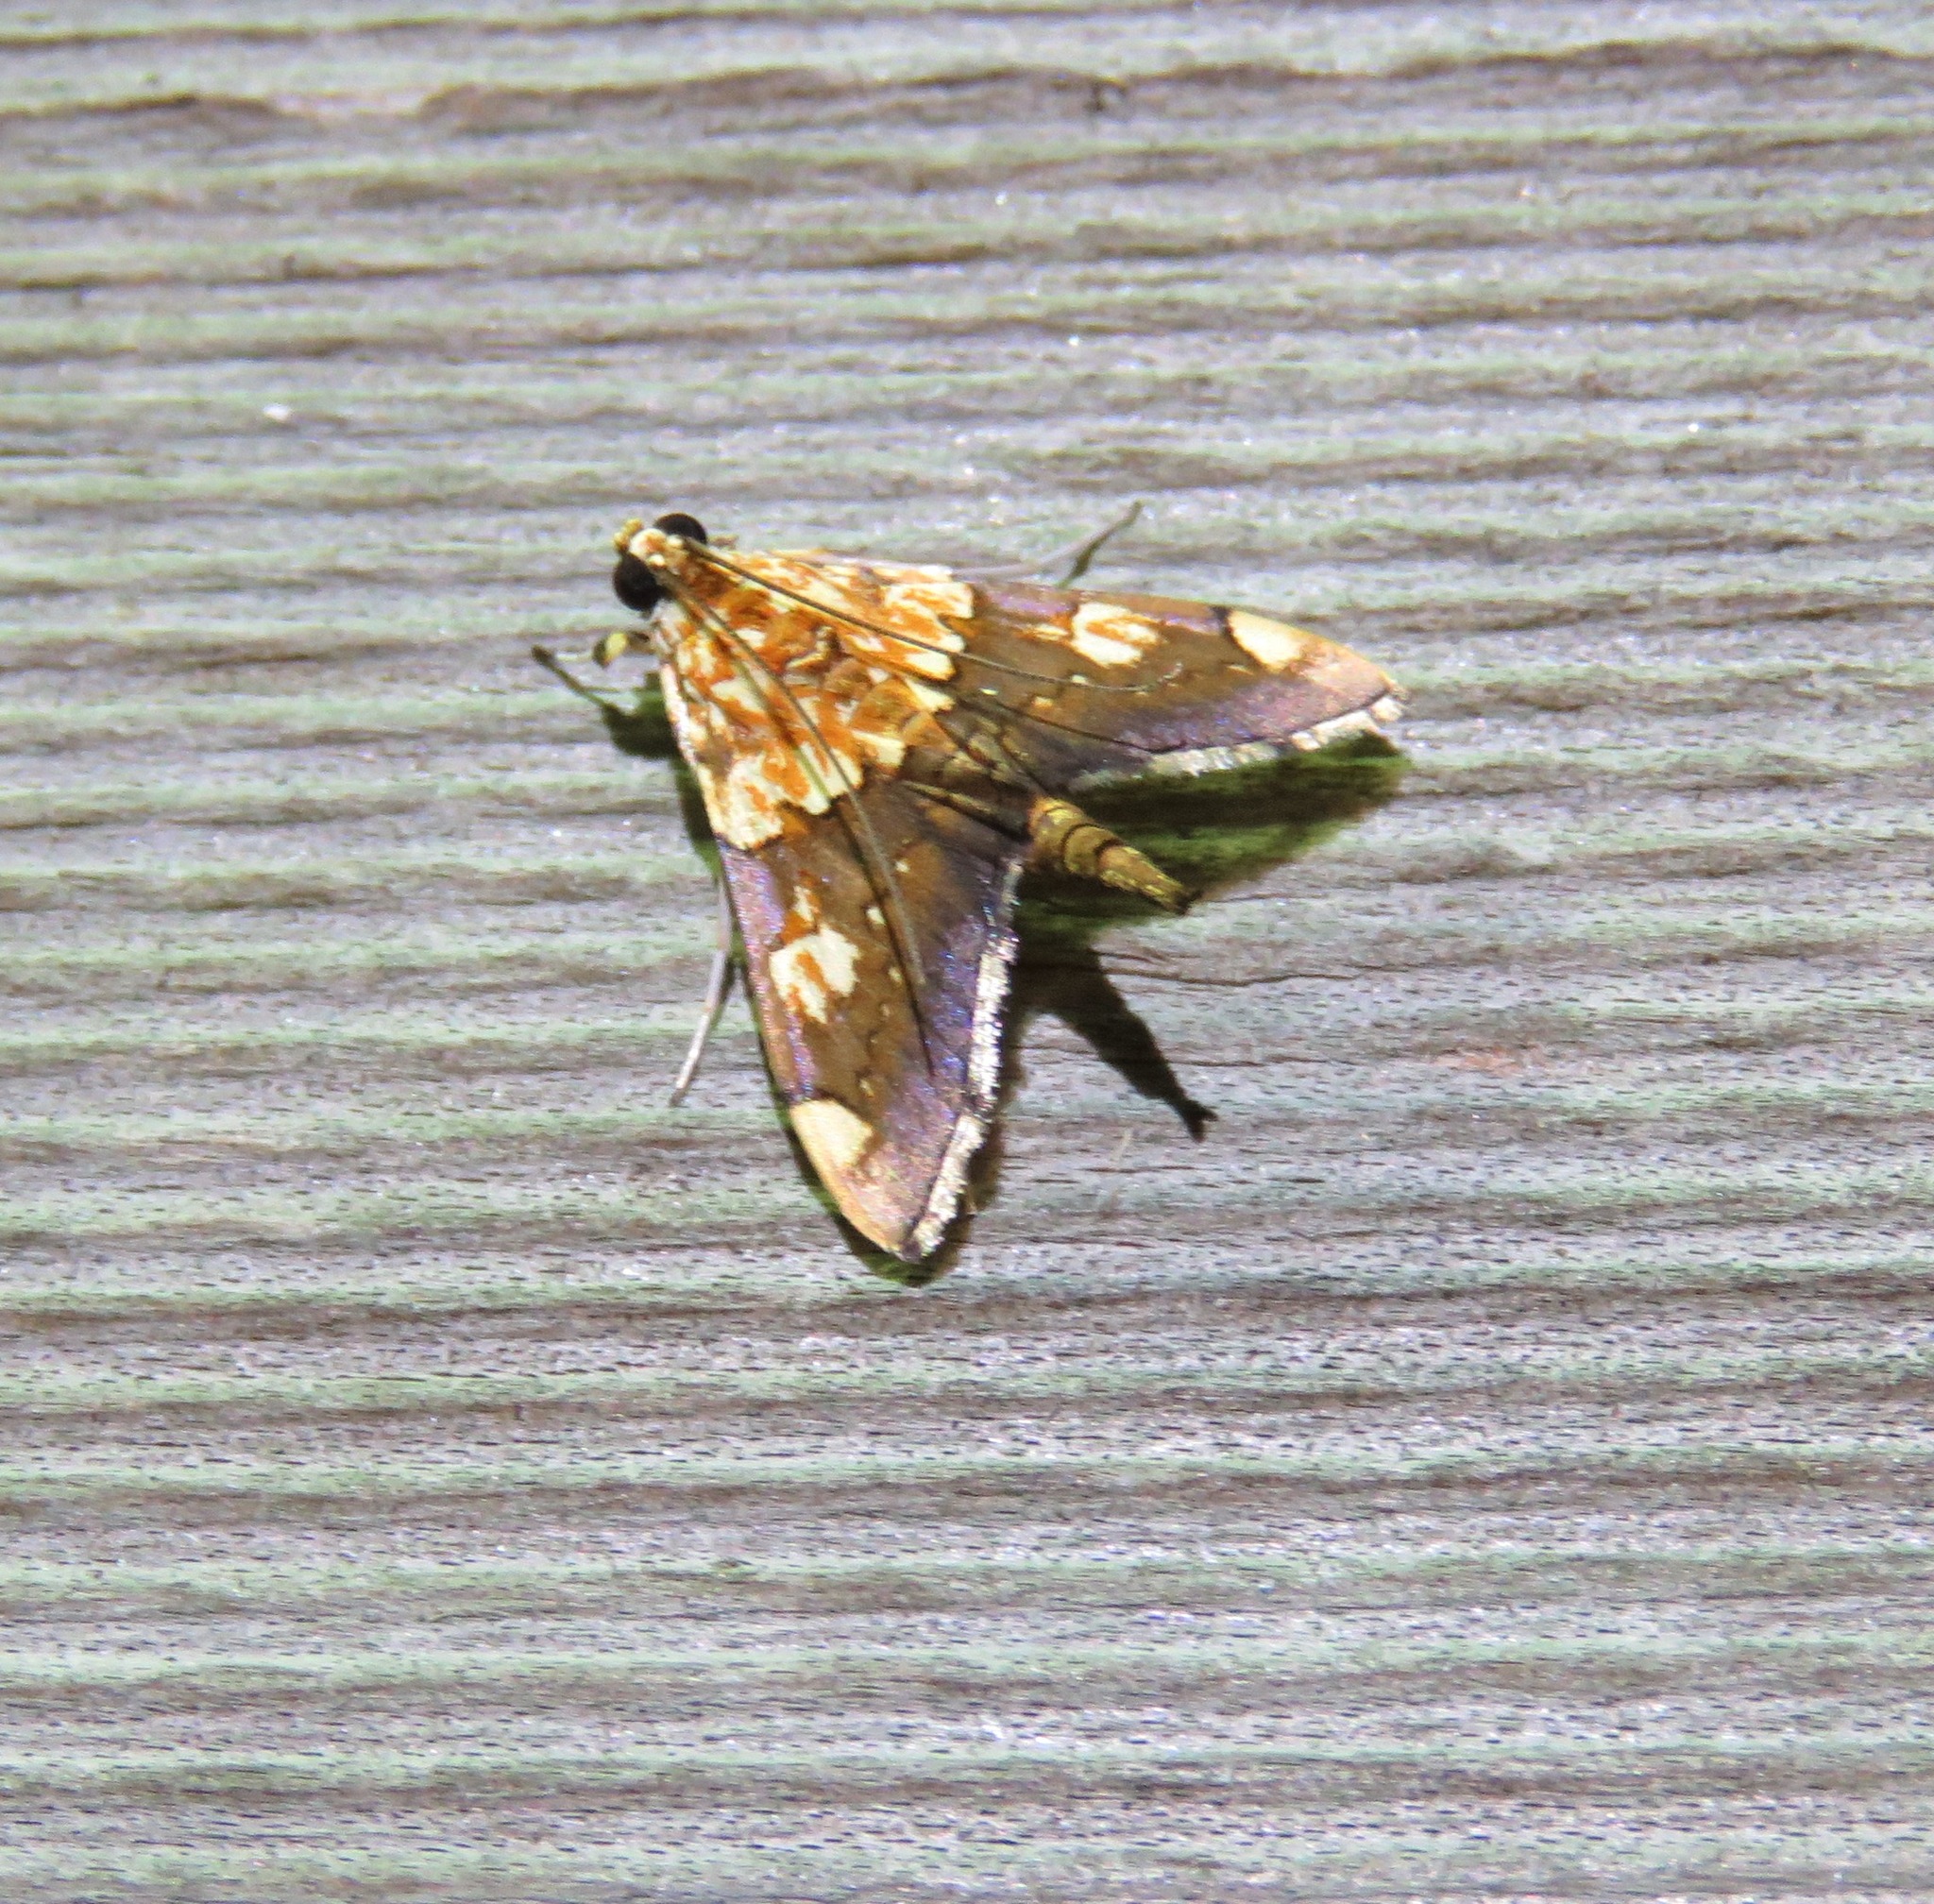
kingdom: Animalia
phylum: Arthropoda
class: Insecta
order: Lepidoptera
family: Crambidae
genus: Agrotera
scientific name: Agrotera namorokalis
